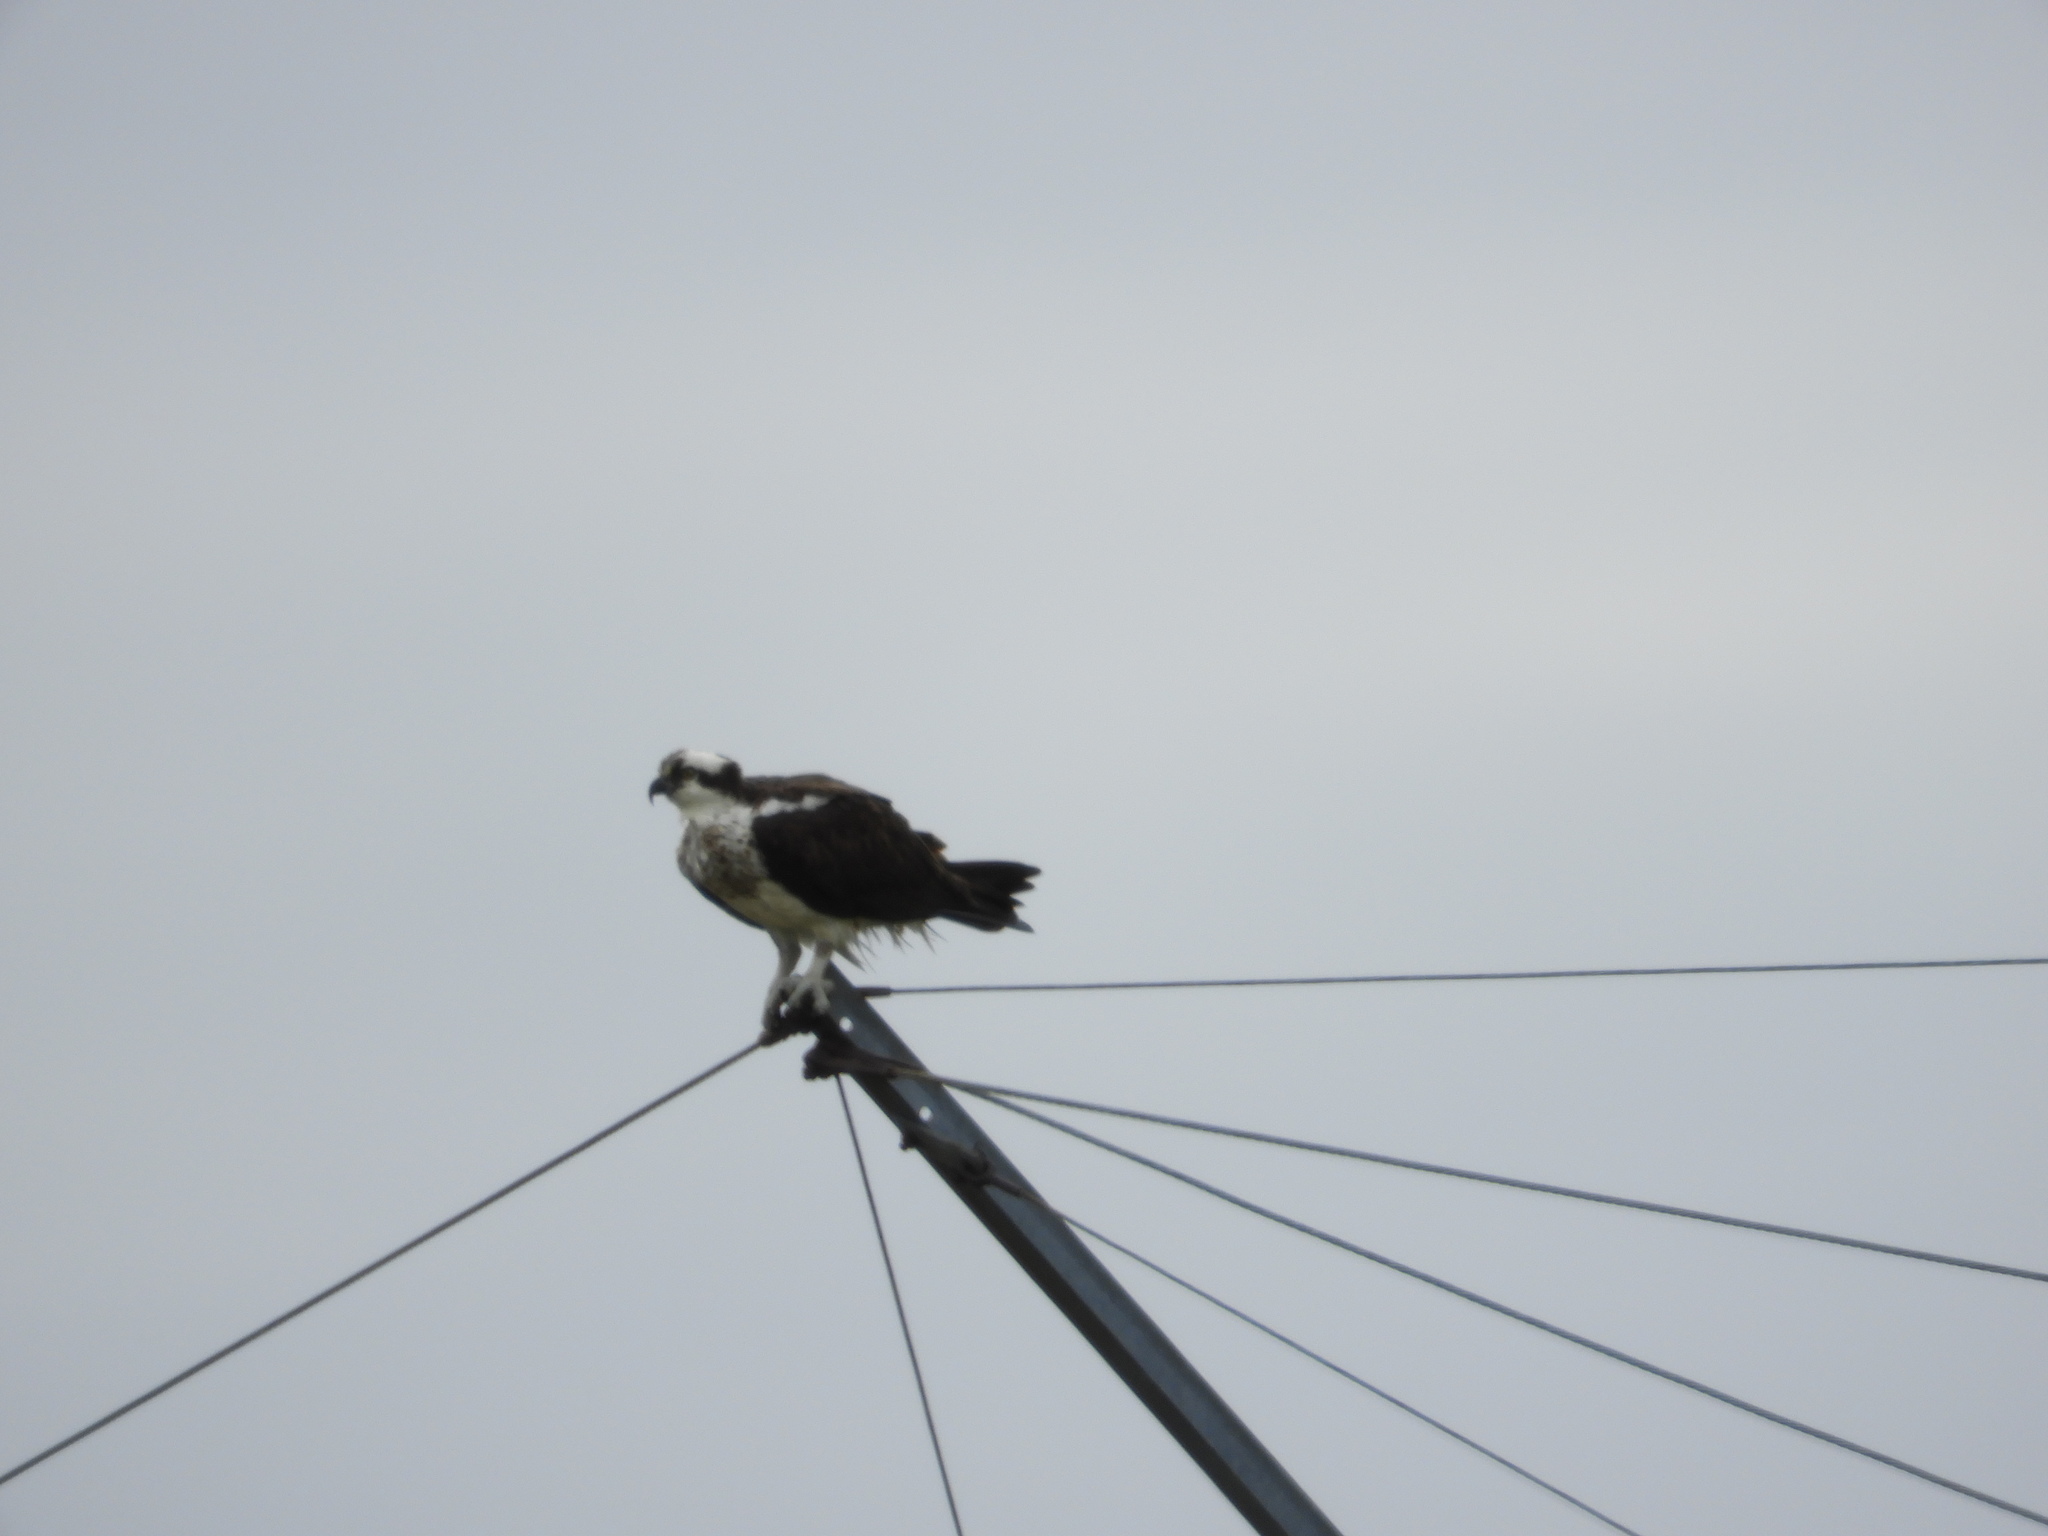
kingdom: Animalia
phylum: Chordata
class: Aves
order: Accipitriformes
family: Pandionidae
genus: Pandion
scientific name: Pandion haliaetus
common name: Osprey
